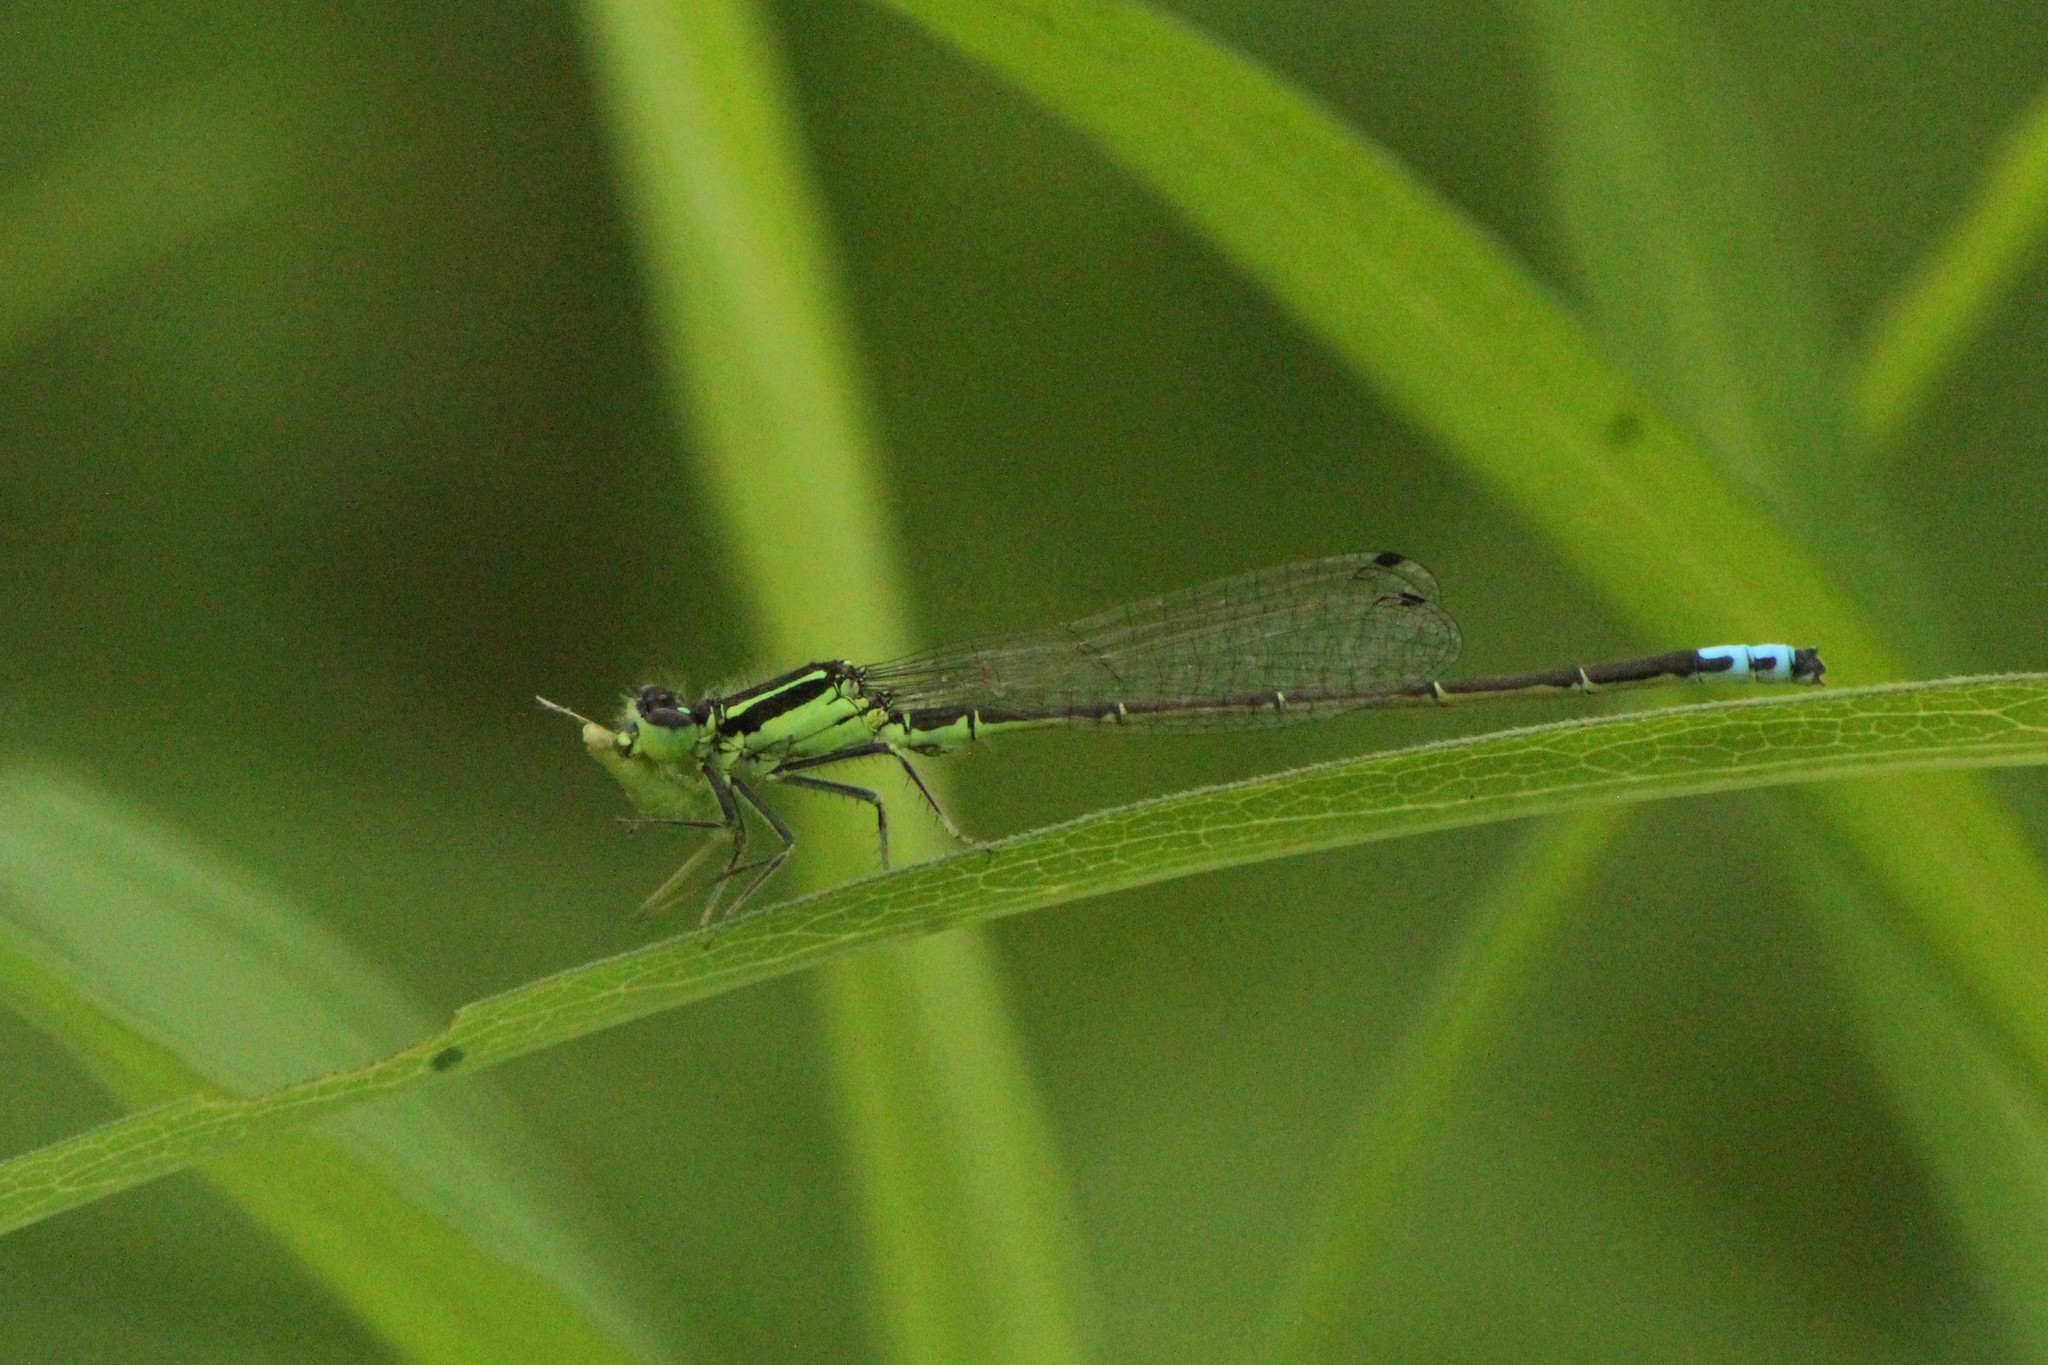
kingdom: Animalia
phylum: Arthropoda
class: Insecta
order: Odonata
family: Coenagrionidae
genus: Ischnura
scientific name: Ischnura verticalis
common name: Eastern forktail
